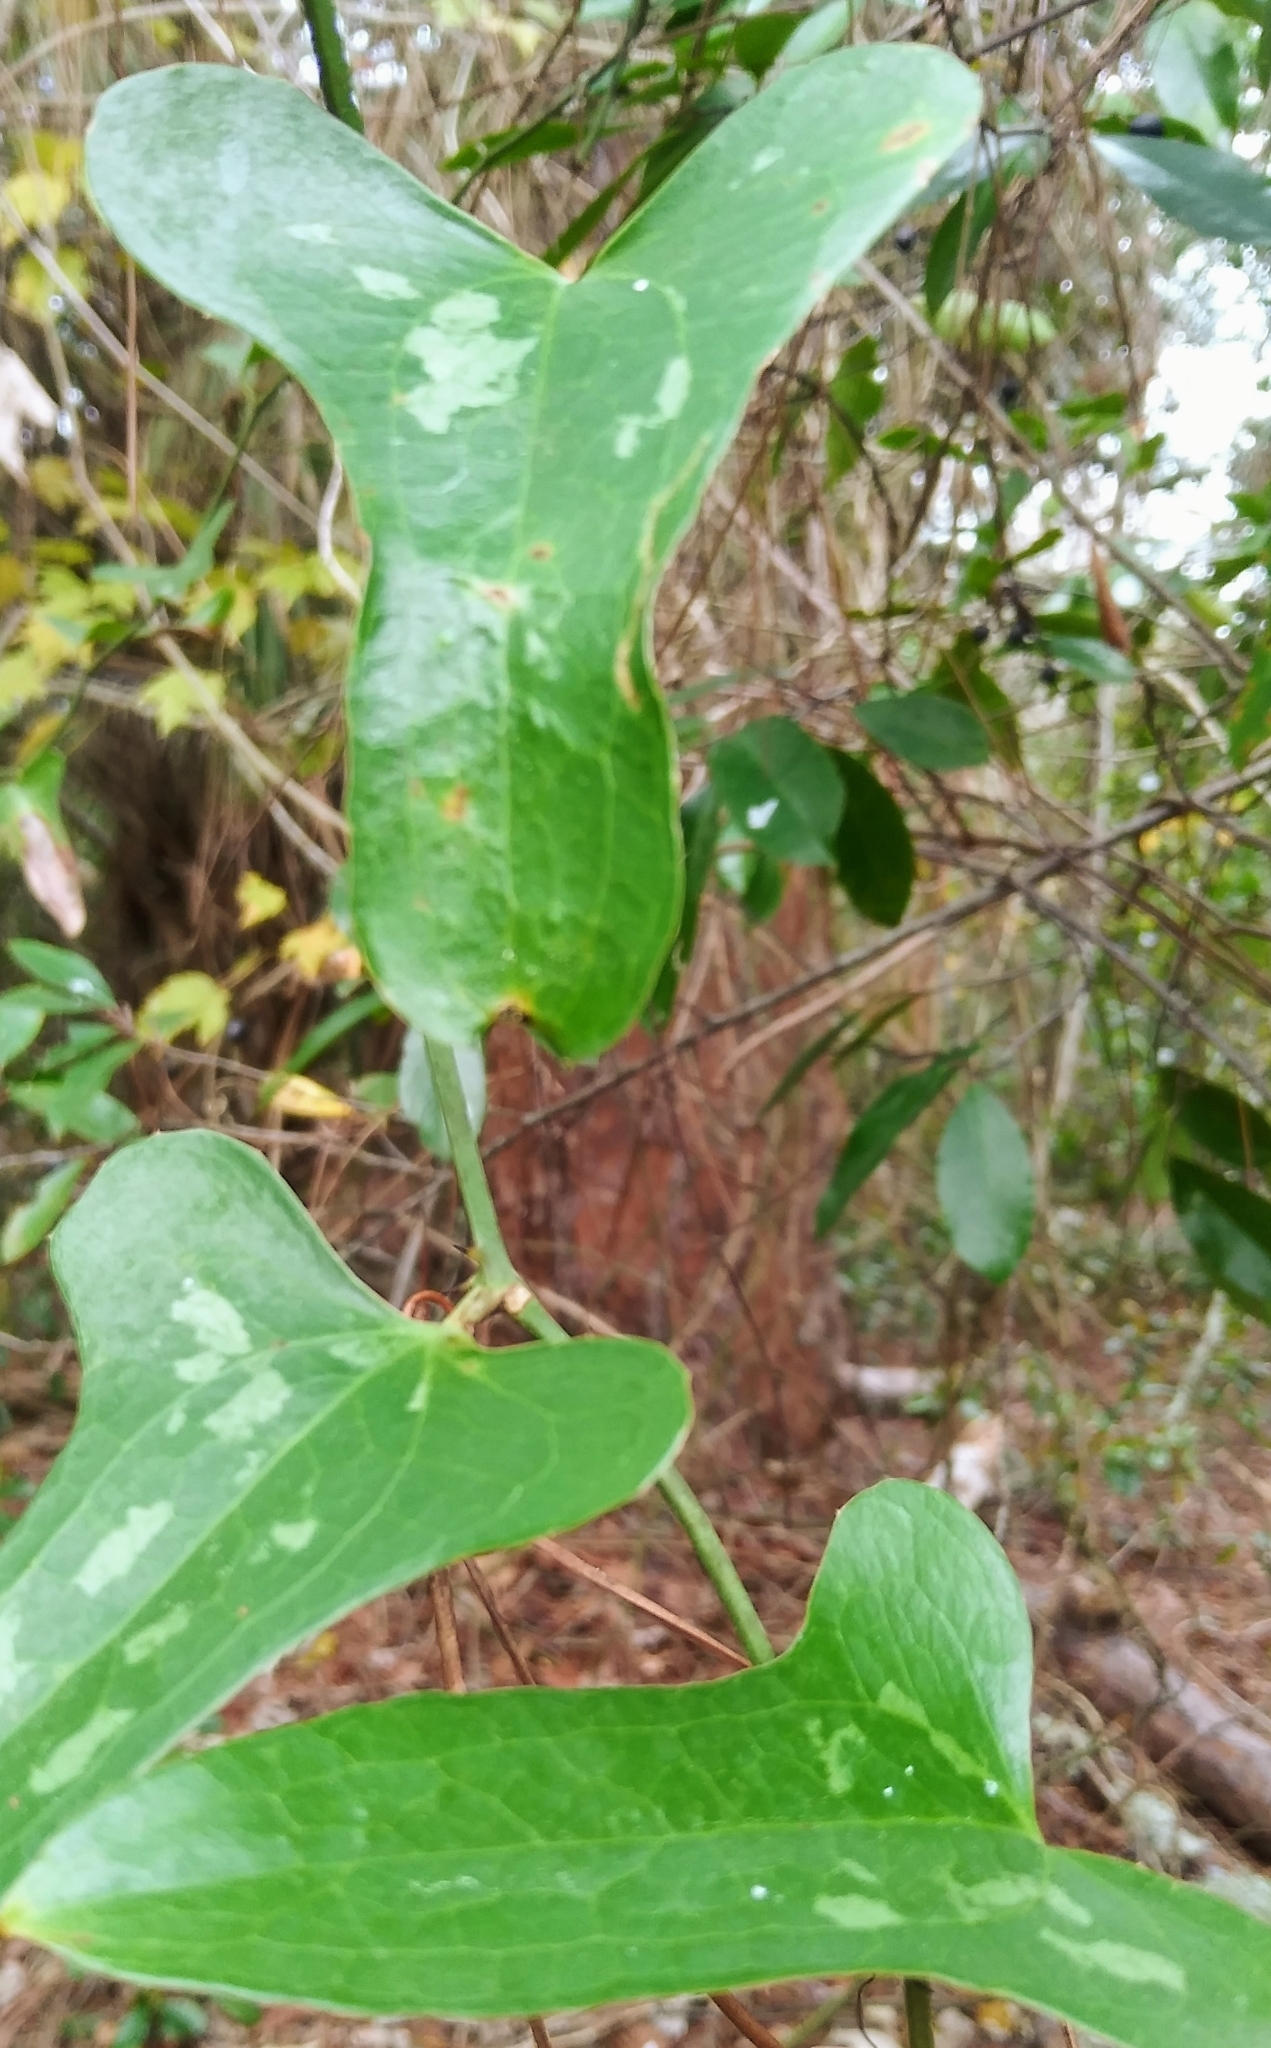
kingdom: Plantae
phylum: Tracheophyta
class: Liliopsida
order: Liliales
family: Smilacaceae
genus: Smilax
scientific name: Smilax bona-nox
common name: Catbrier
